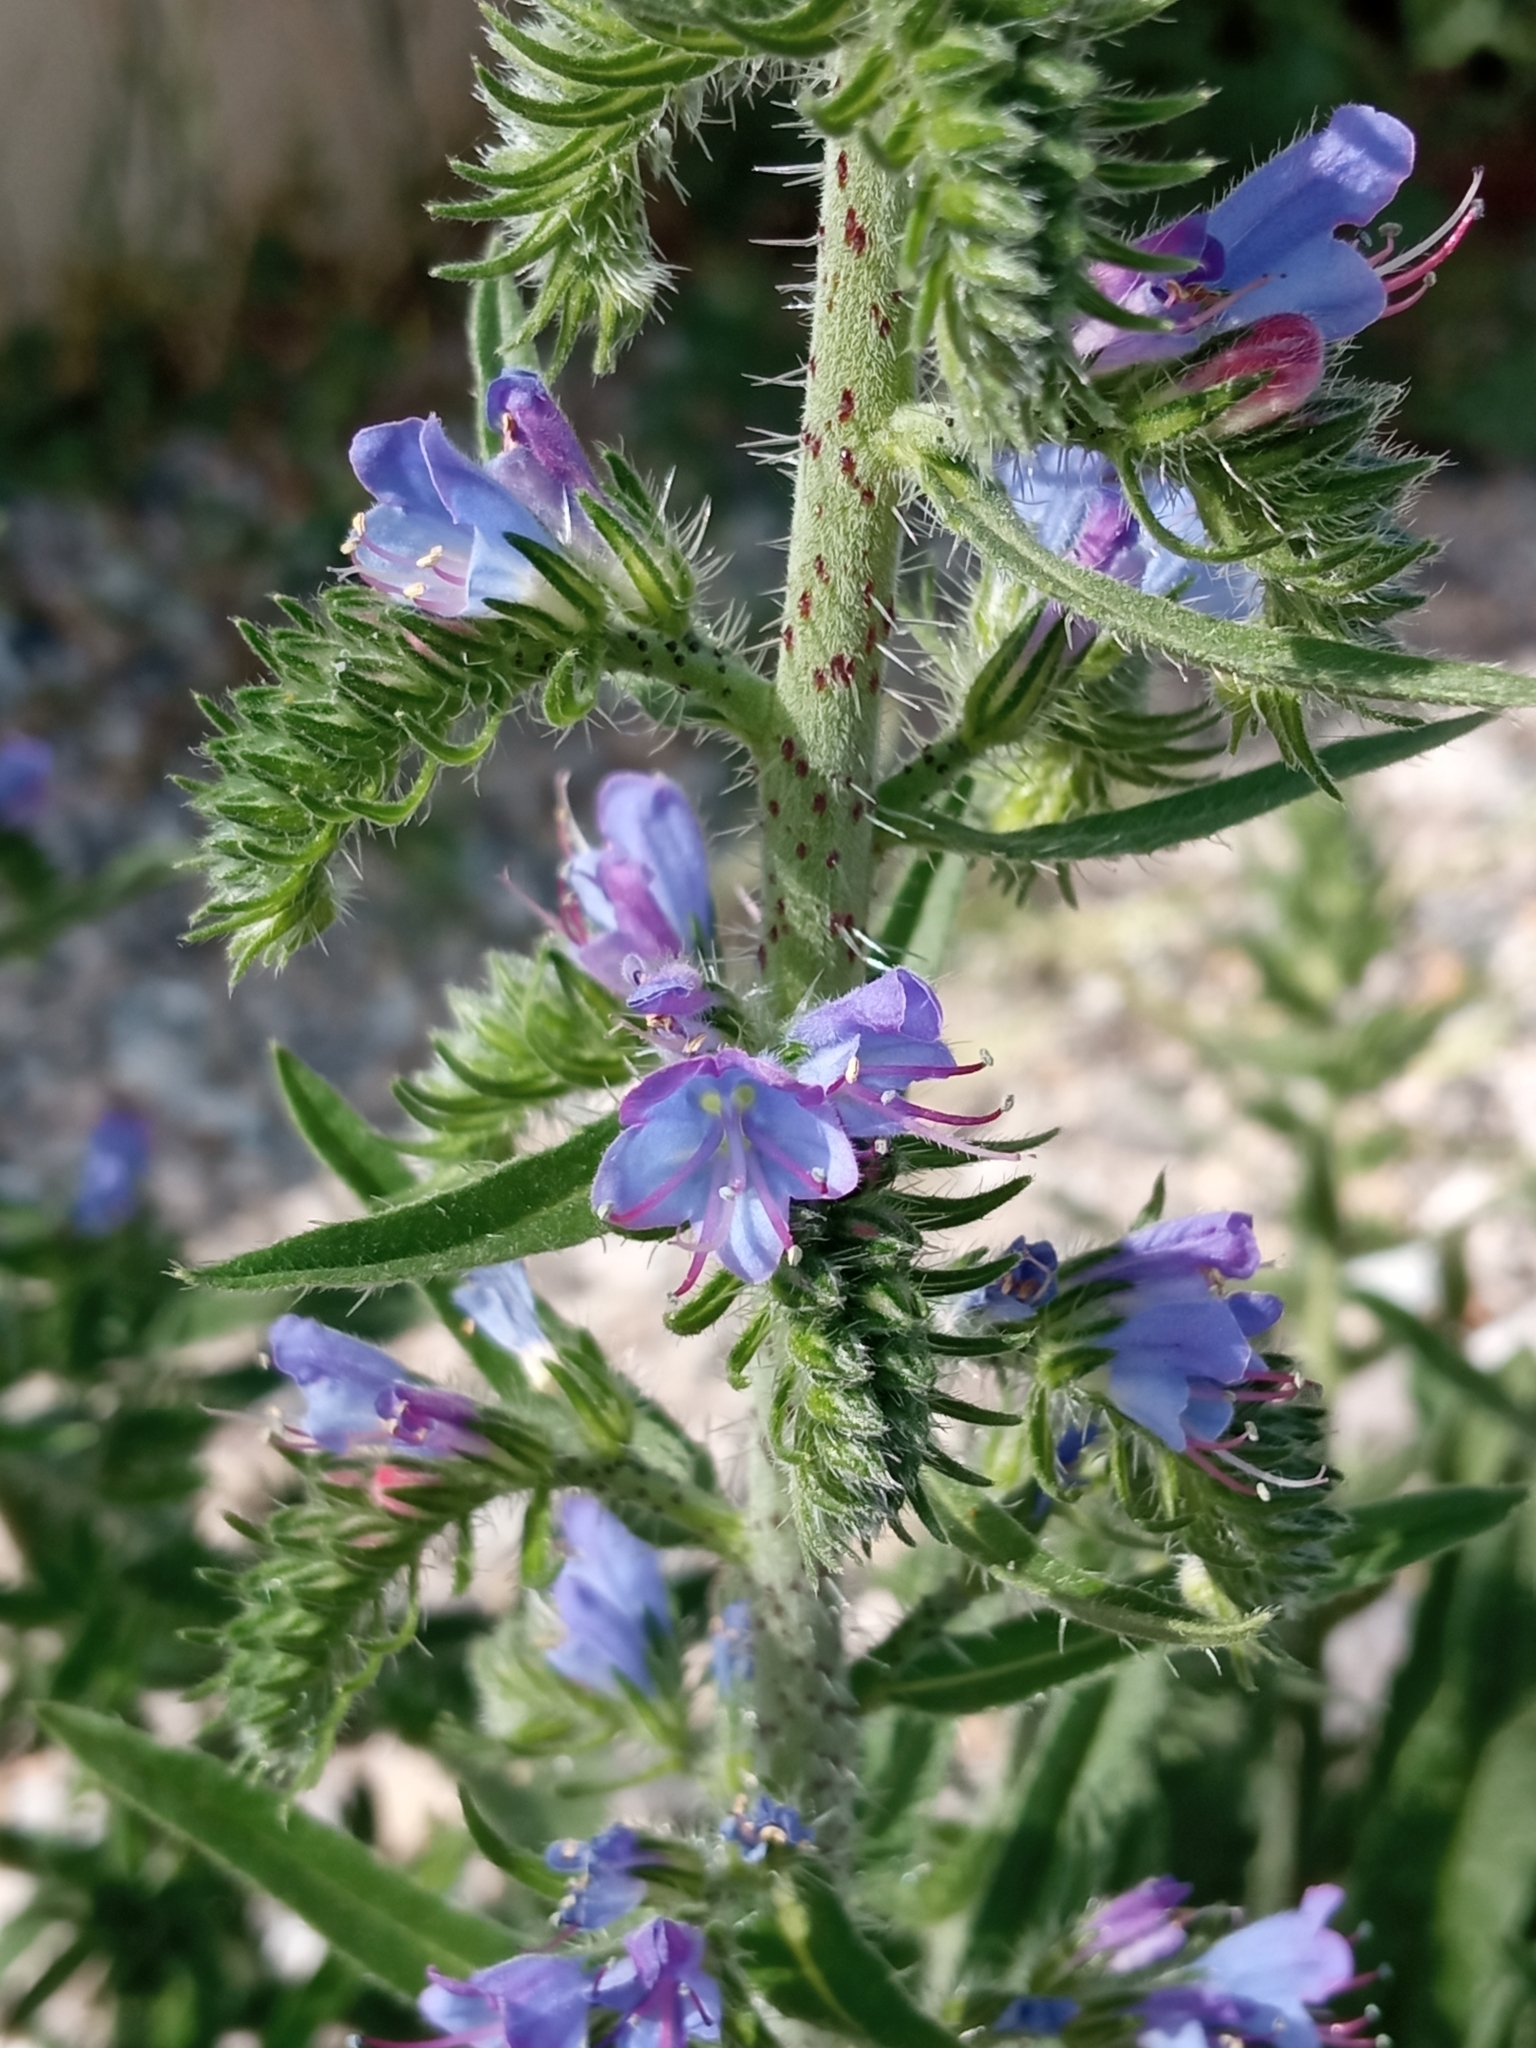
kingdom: Plantae
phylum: Tracheophyta
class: Magnoliopsida
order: Boraginales
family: Boraginaceae
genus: Echium
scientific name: Echium vulgare
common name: Common viper's bugloss
